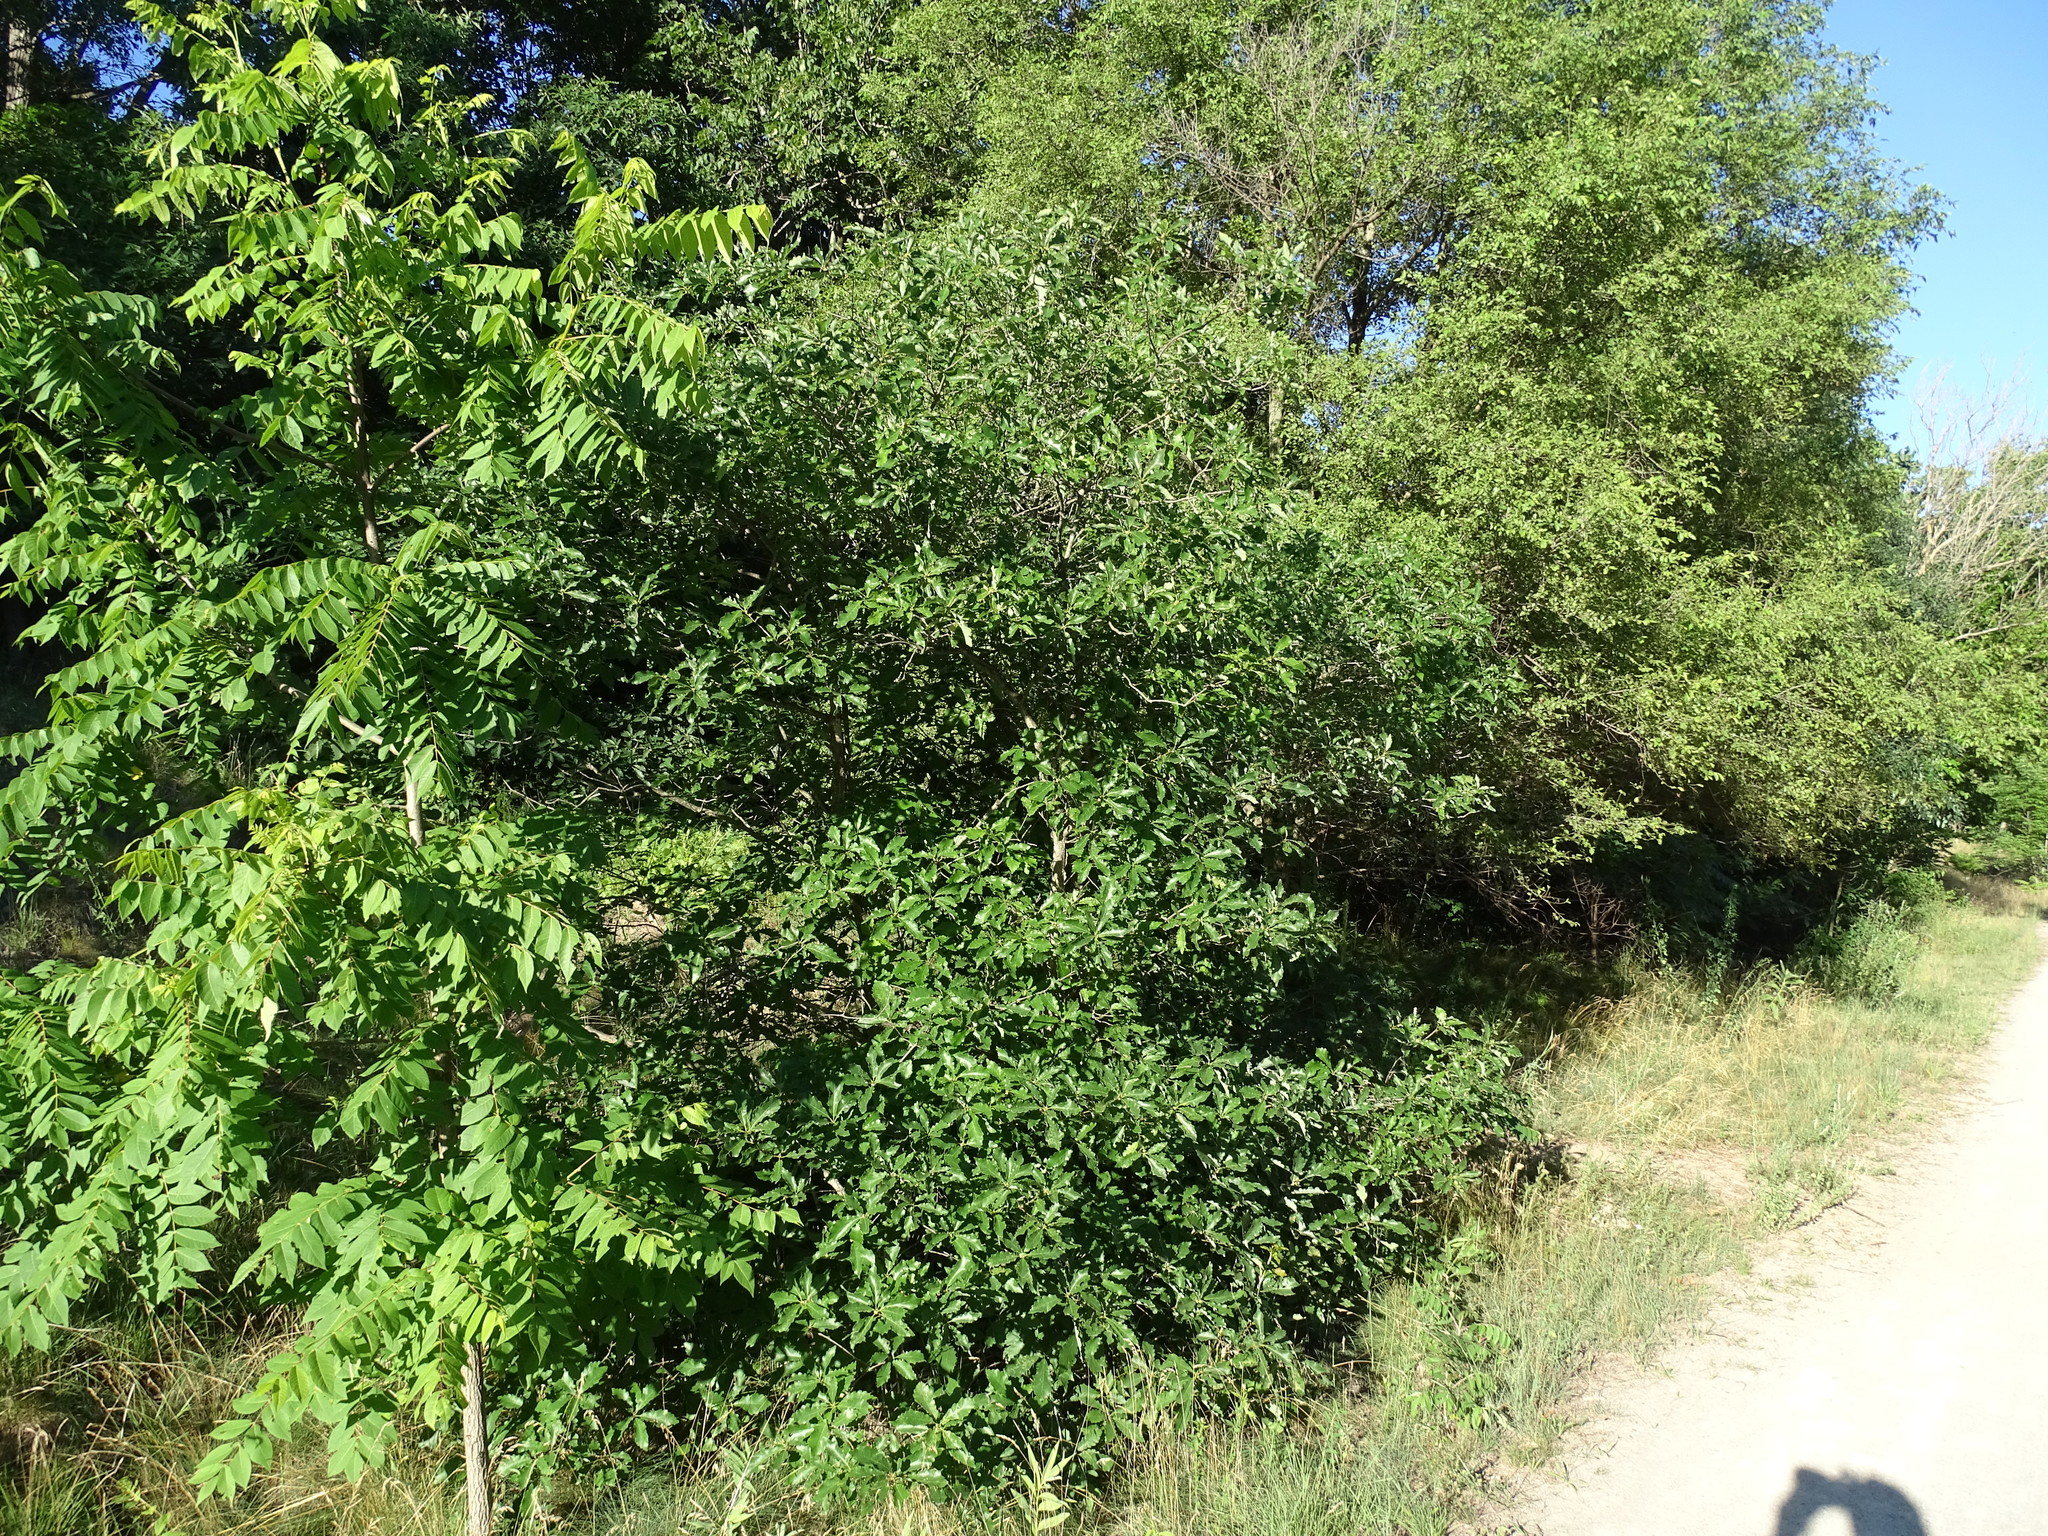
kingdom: Plantae
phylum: Tracheophyta
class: Magnoliopsida
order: Fagales
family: Fagaceae
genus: Quercus
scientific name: Quercus prinoides
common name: Dwarf chinkapin oak
